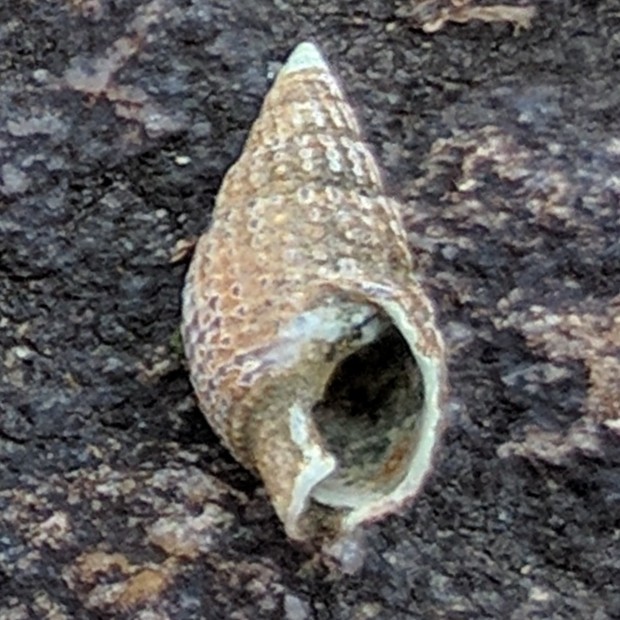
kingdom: Animalia
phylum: Mollusca
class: Gastropoda
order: Neogastropoda
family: Nassariidae
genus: Ilyanassa
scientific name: Ilyanassa trivittata
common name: Three-line mudsnail
